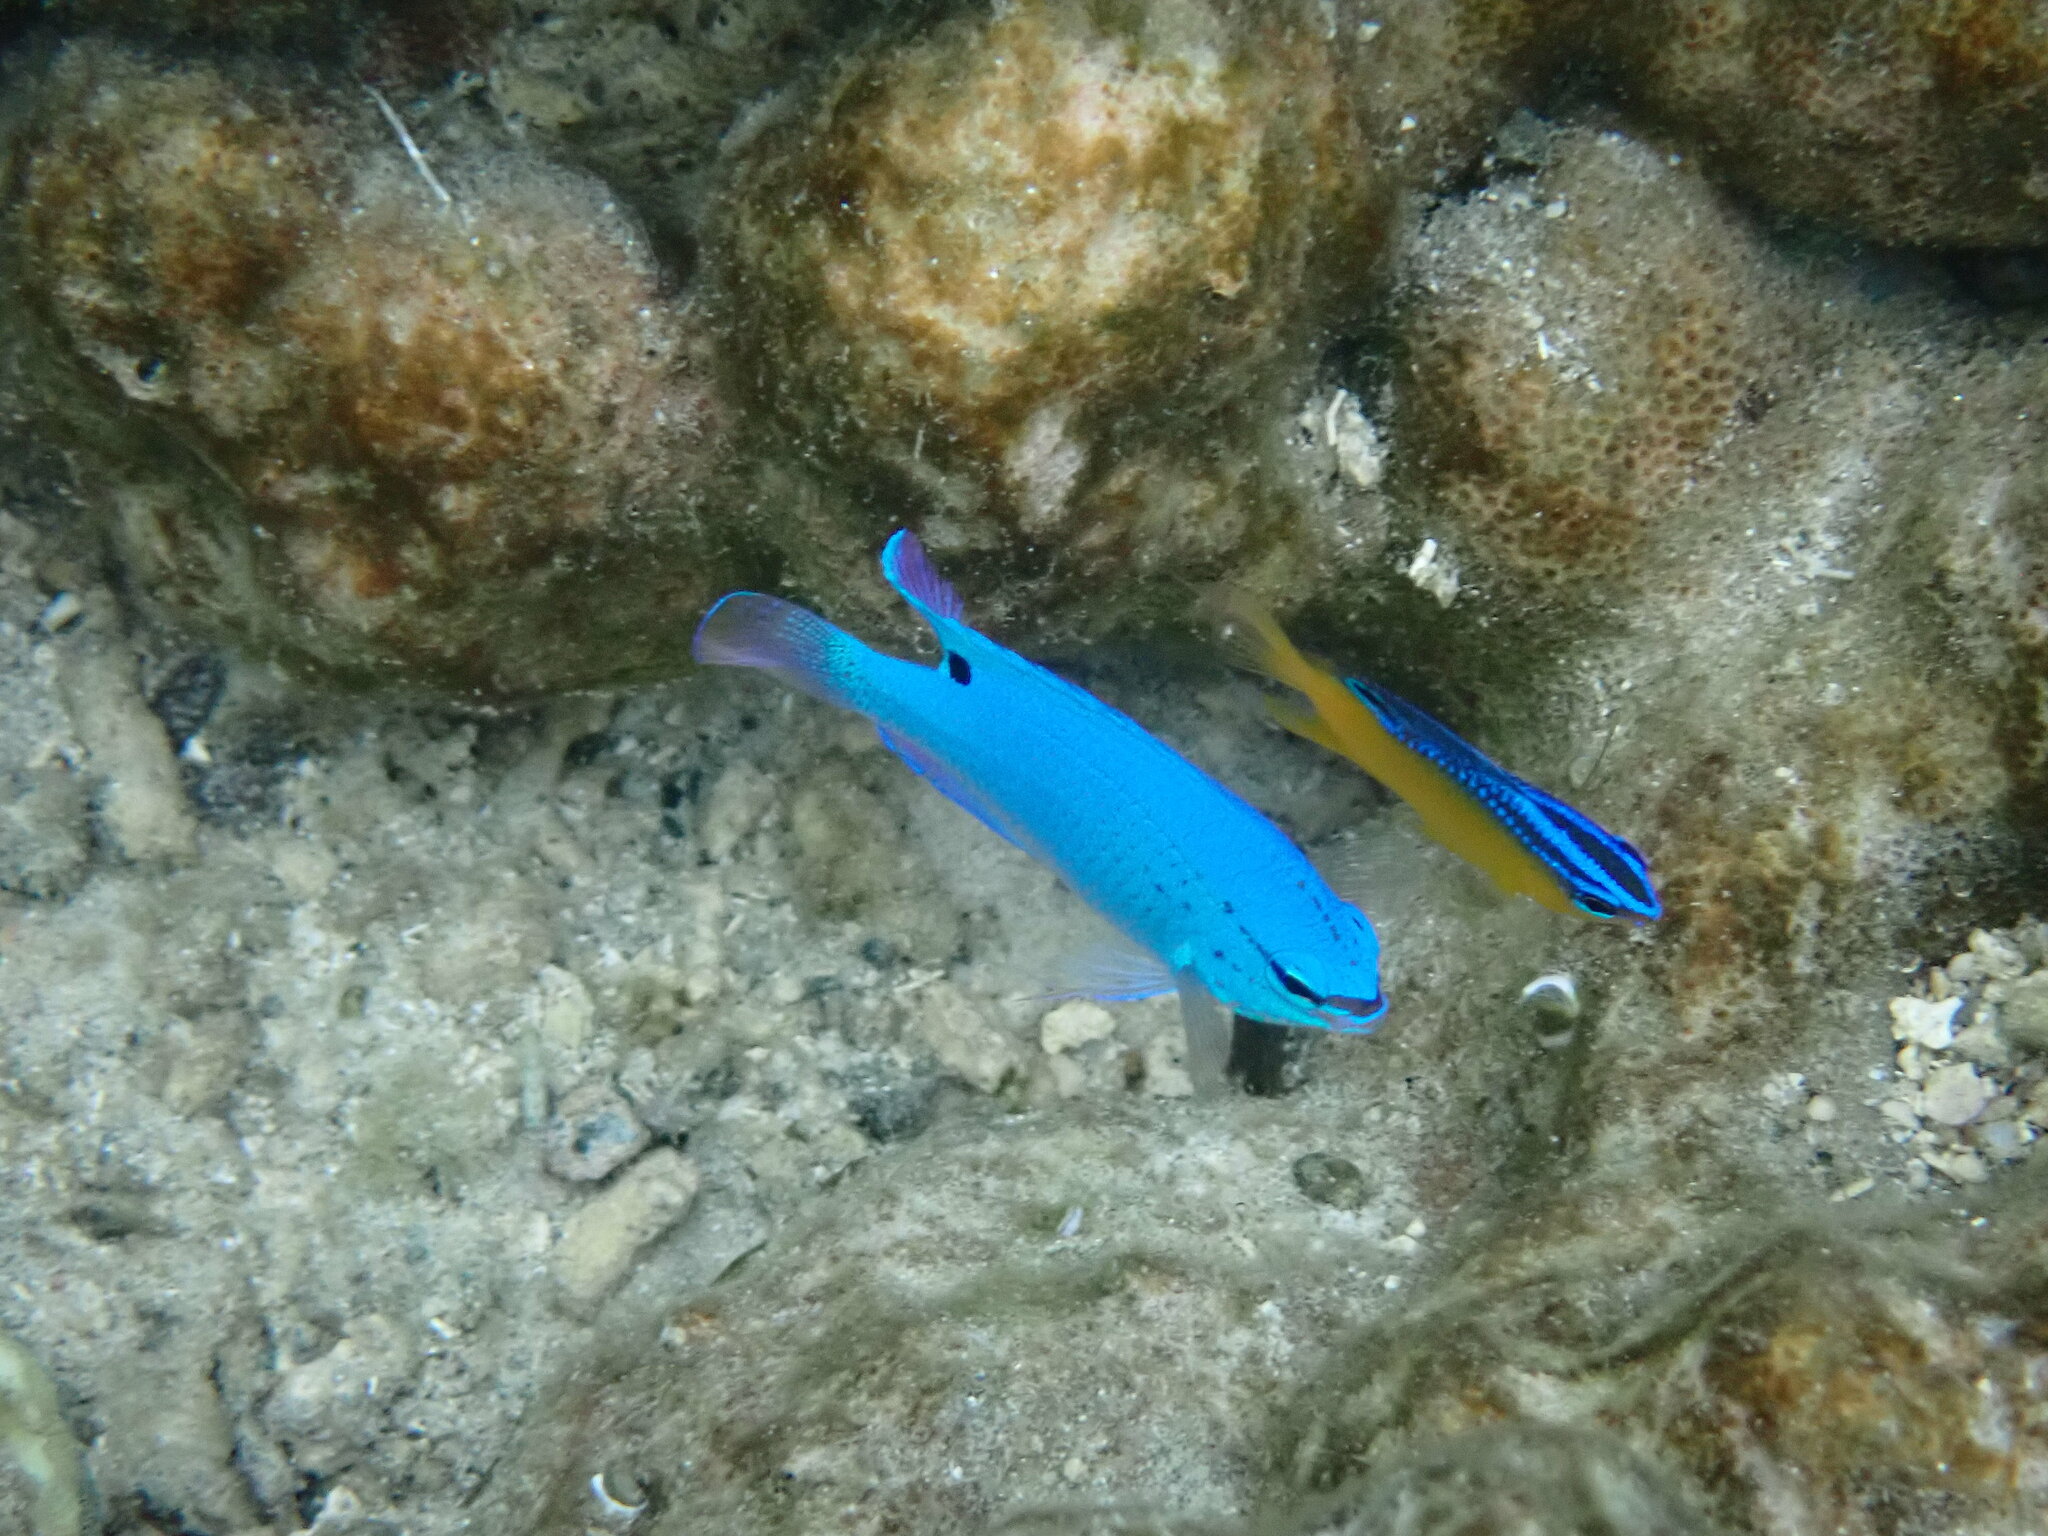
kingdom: Animalia
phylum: Chordata
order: Perciformes
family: Pomacentridae
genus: Chrysiptera
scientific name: Chrysiptera cyanea
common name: Blue devil
